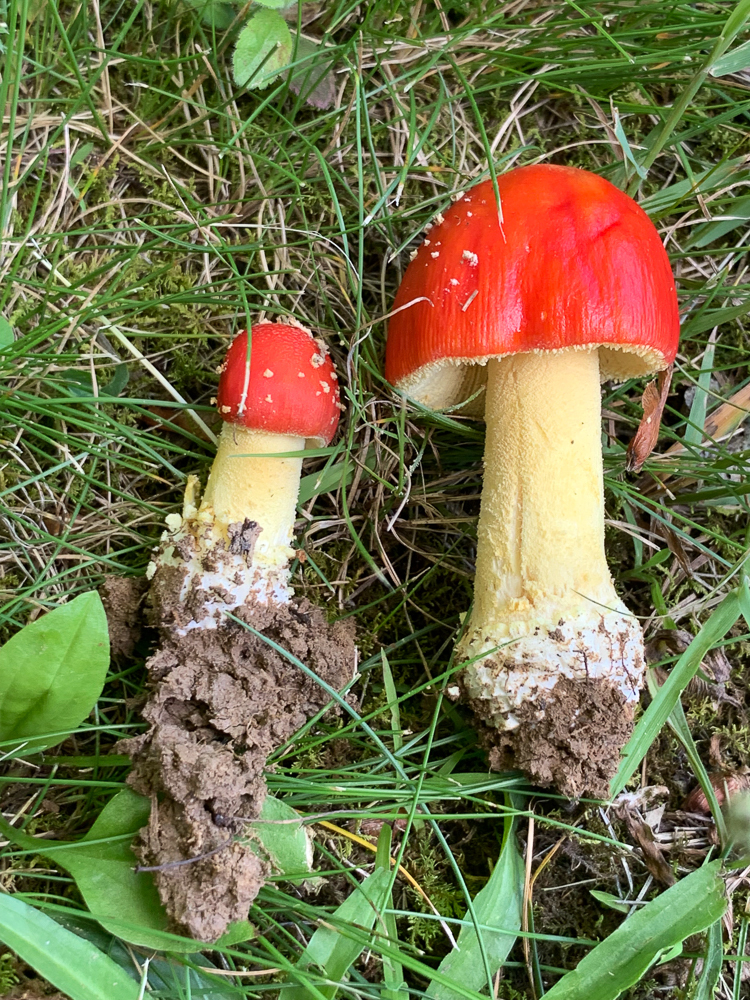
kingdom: Fungi
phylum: Basidiomycota
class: Agaricomycetes
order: Agaricales
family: Amanitaceae
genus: Amanita
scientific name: Amanita parcivolvata
